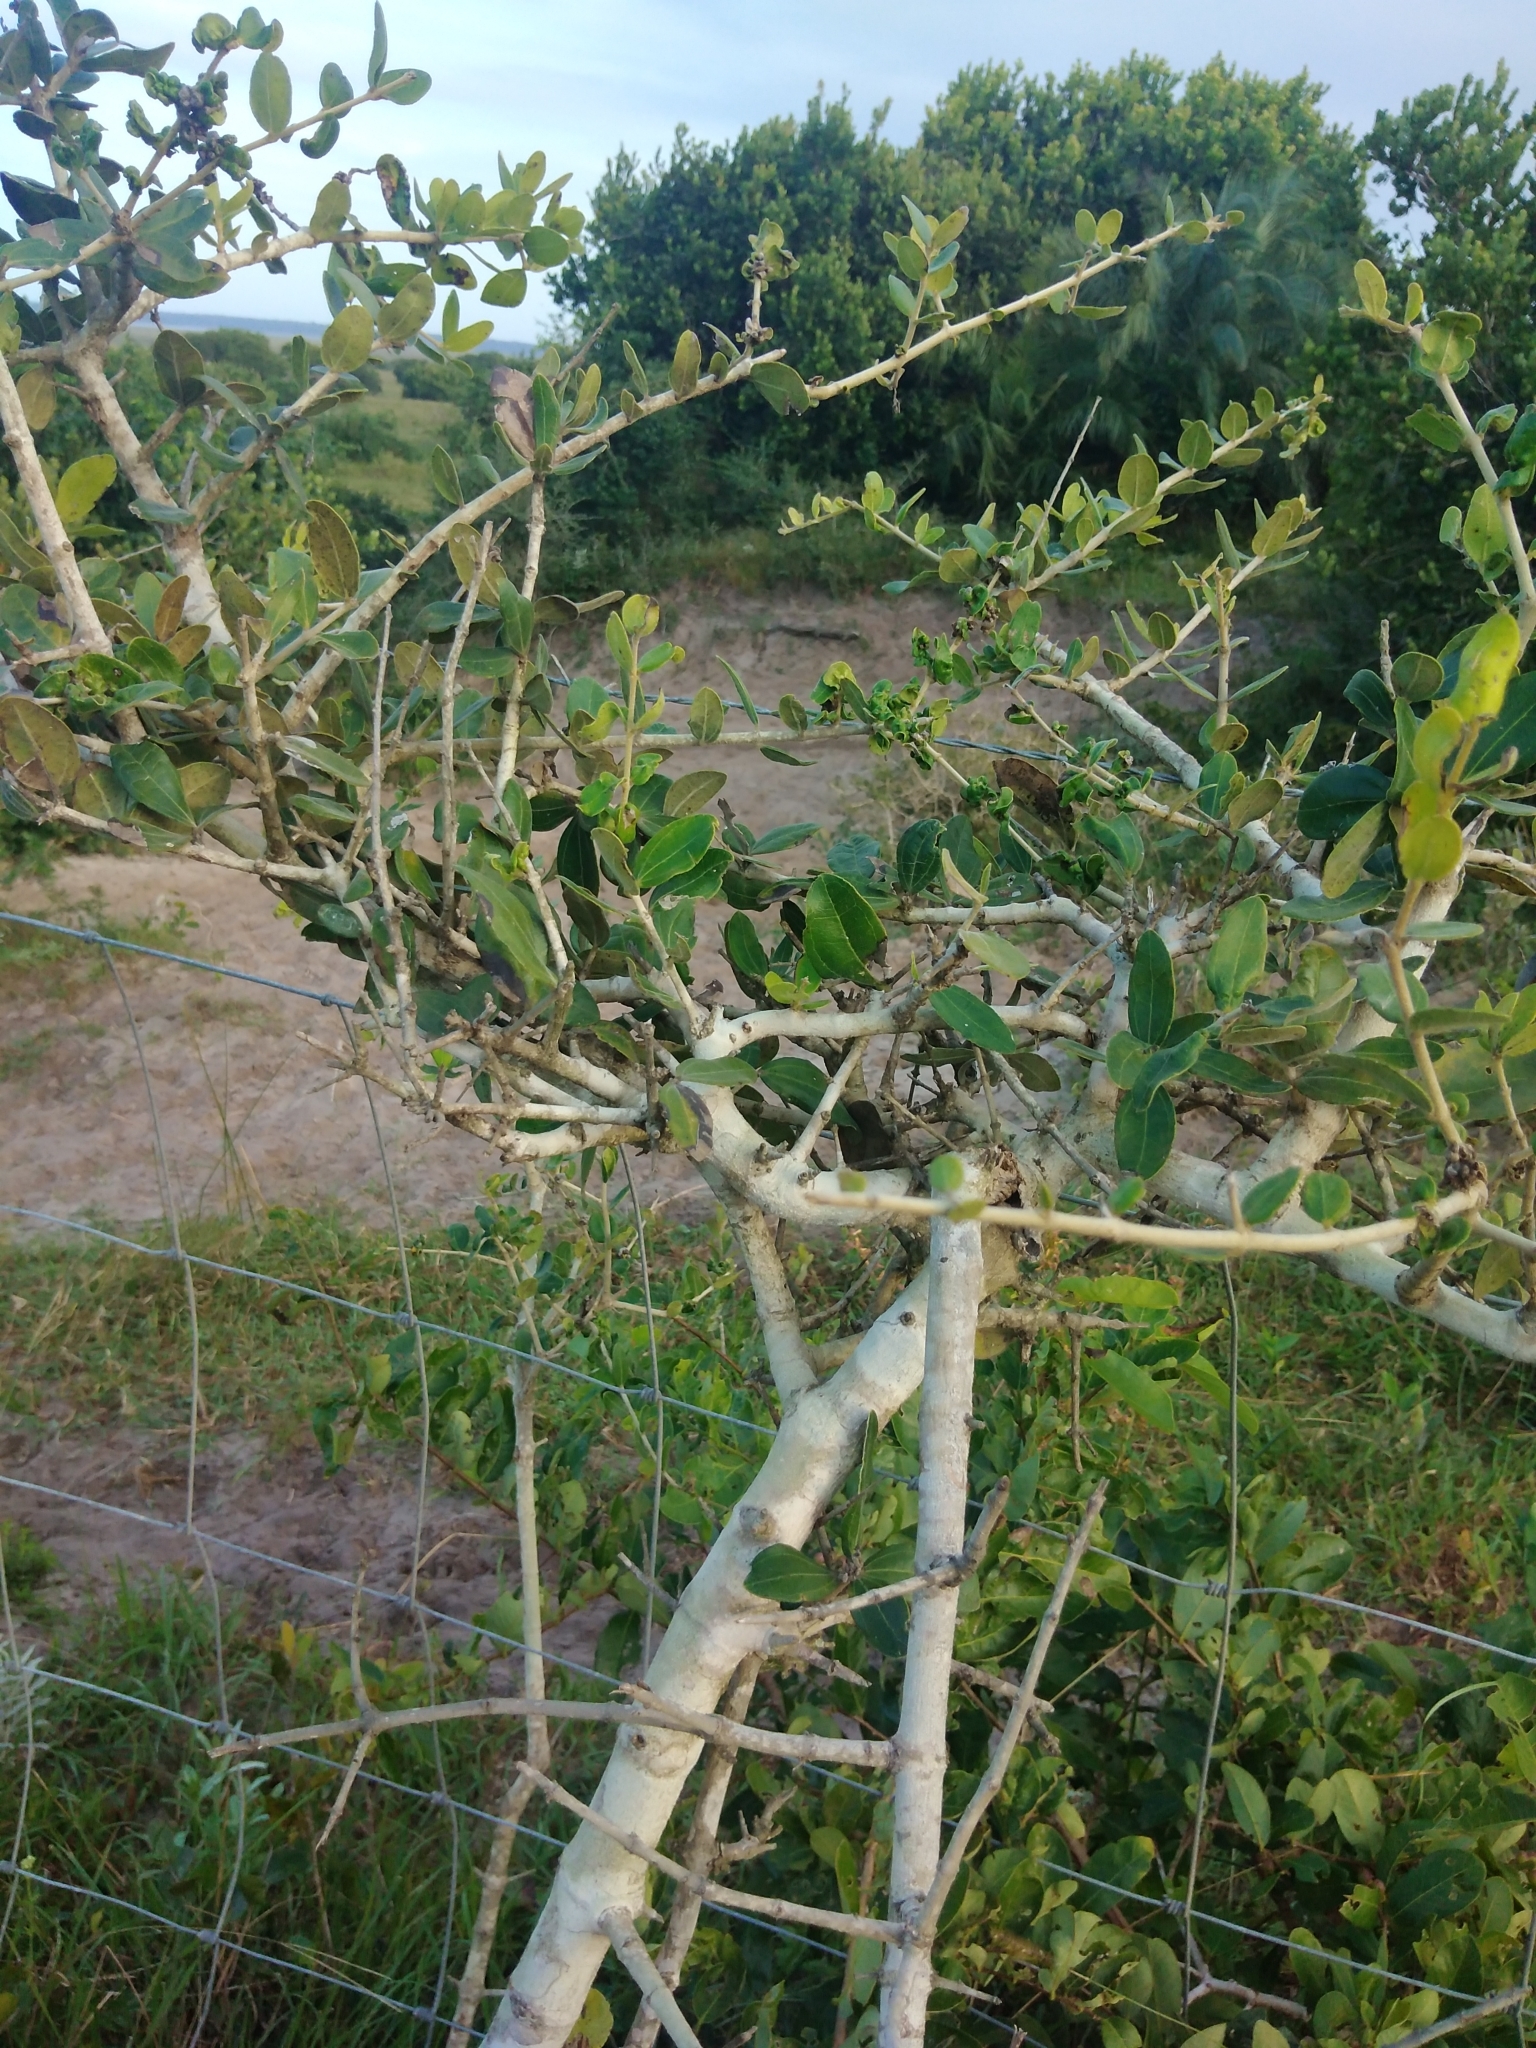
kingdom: Plantae
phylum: Tracheophyta
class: Magnoliopsida
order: Gentianales
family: Loganiaceae
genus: Strychnos
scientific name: Strychnos madagascariensis
